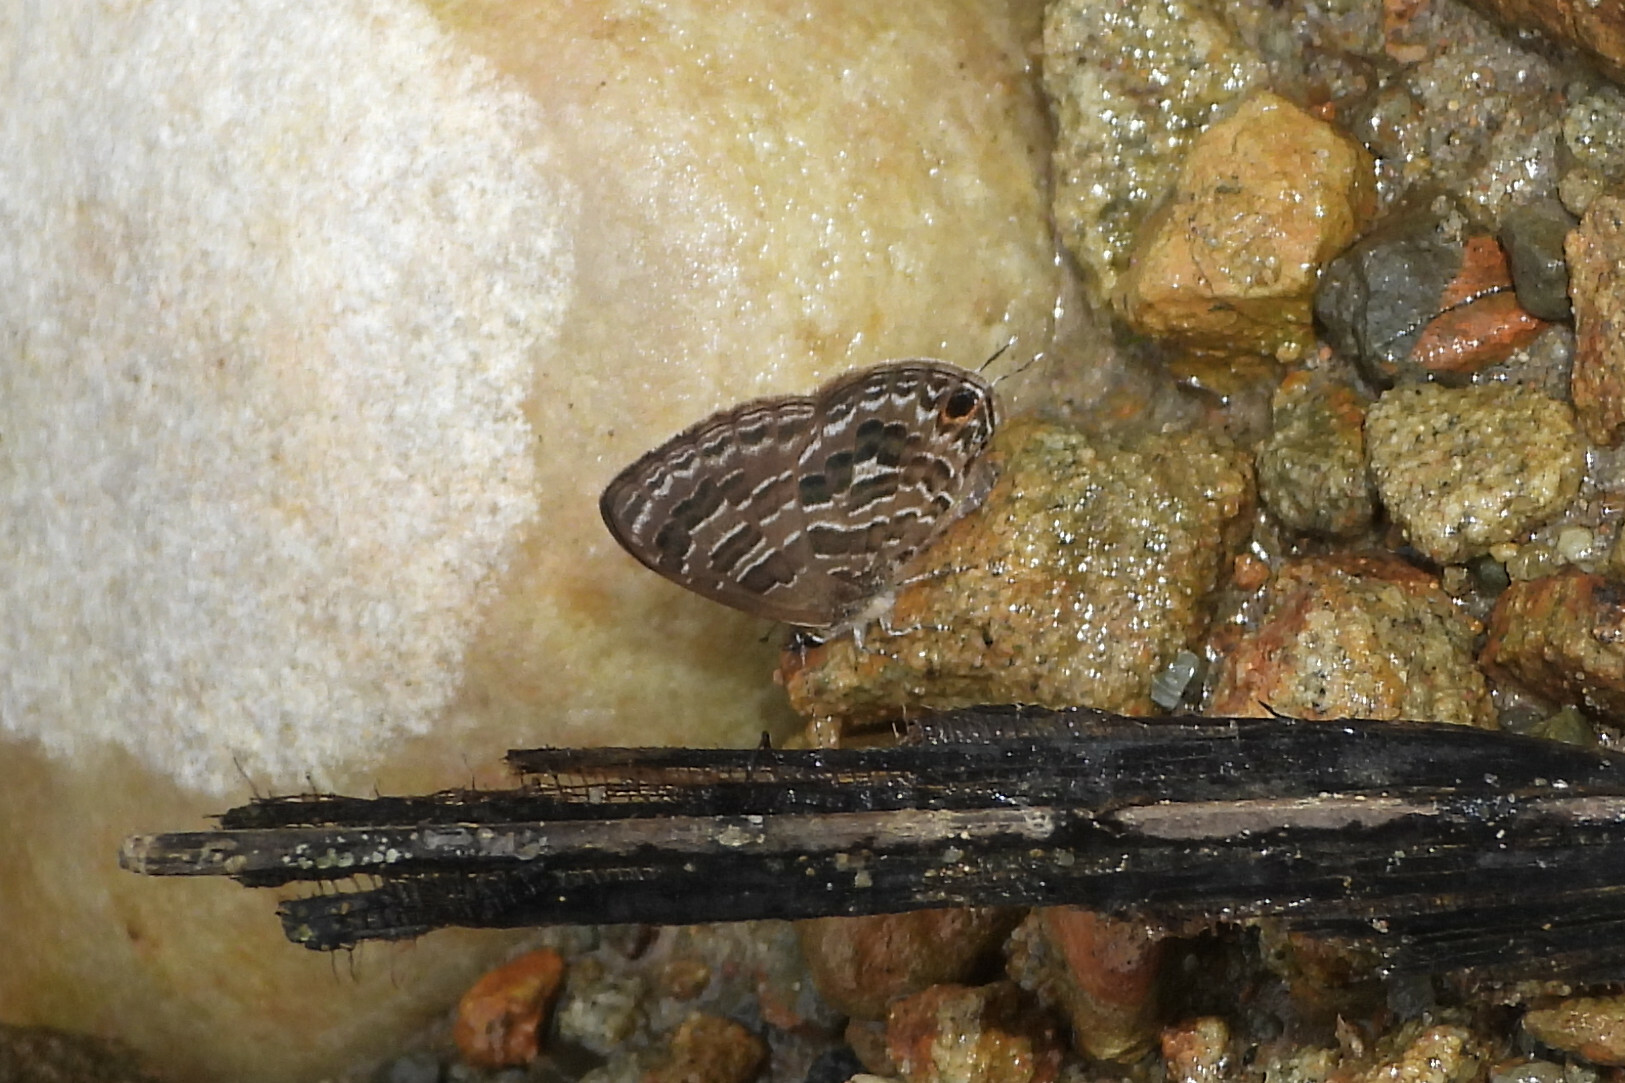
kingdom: Animalia
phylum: Arthropoda
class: Insecta
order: Lepidoptera
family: Lycaenidae
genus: Prosotas
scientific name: Prosotas aluta
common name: Barred lineblue
